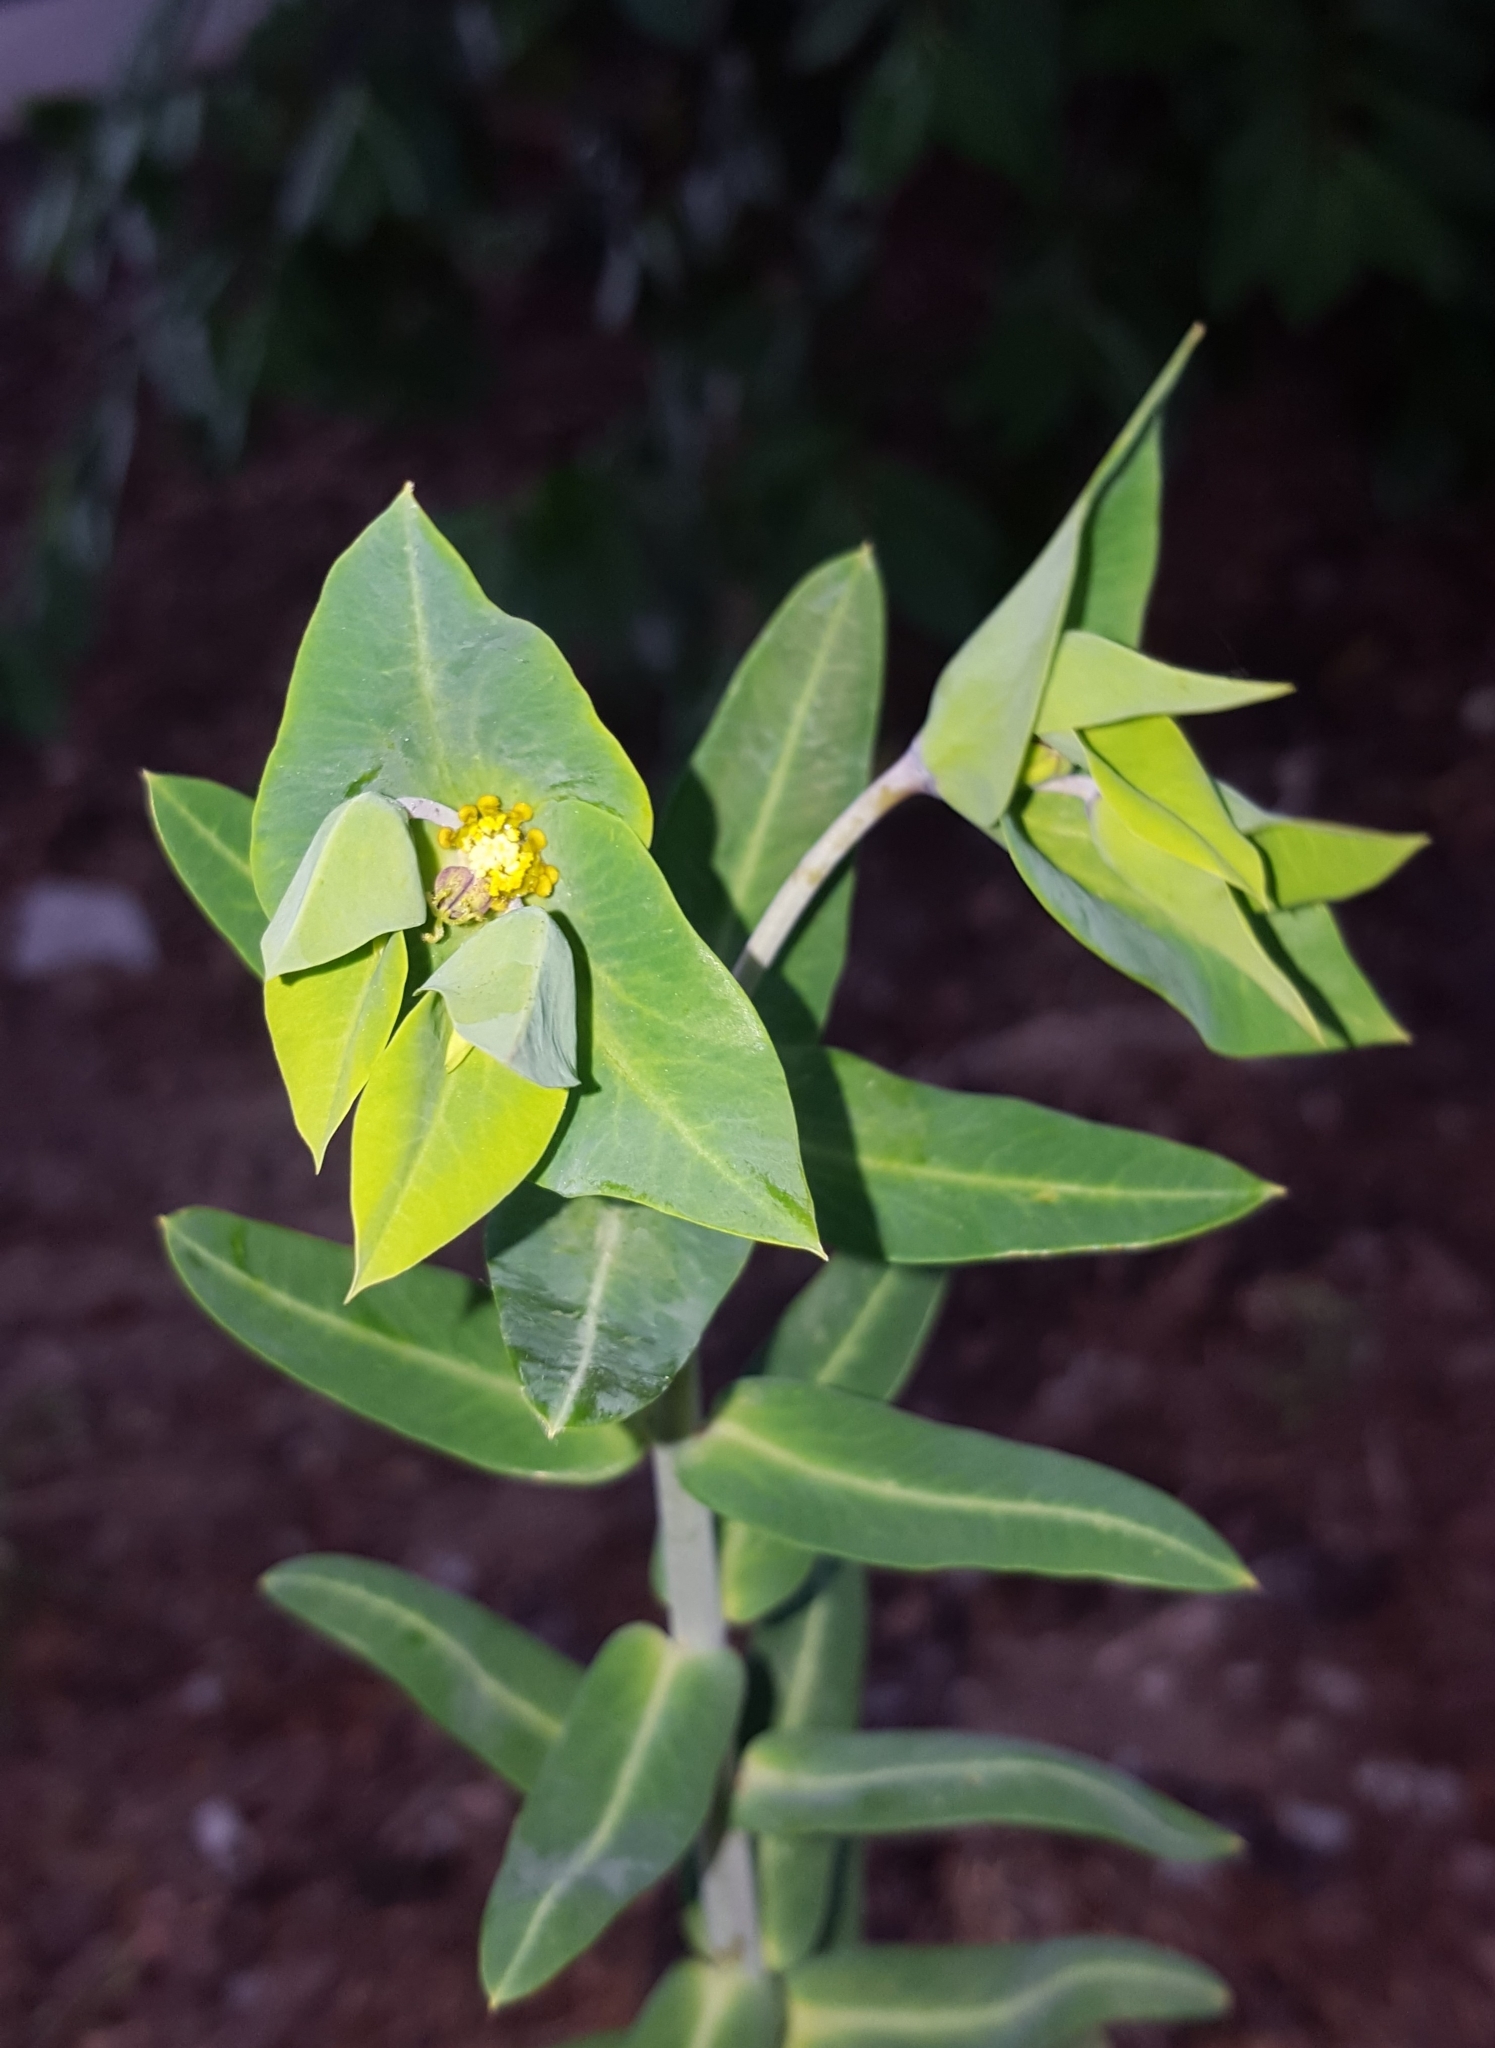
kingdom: Plantae
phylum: Tracheophyta
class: Magnoliopsida
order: Malpighiales
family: Euphorbiaceae
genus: Euphorbia
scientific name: Euphorbia lathyris
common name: Caper spurge
